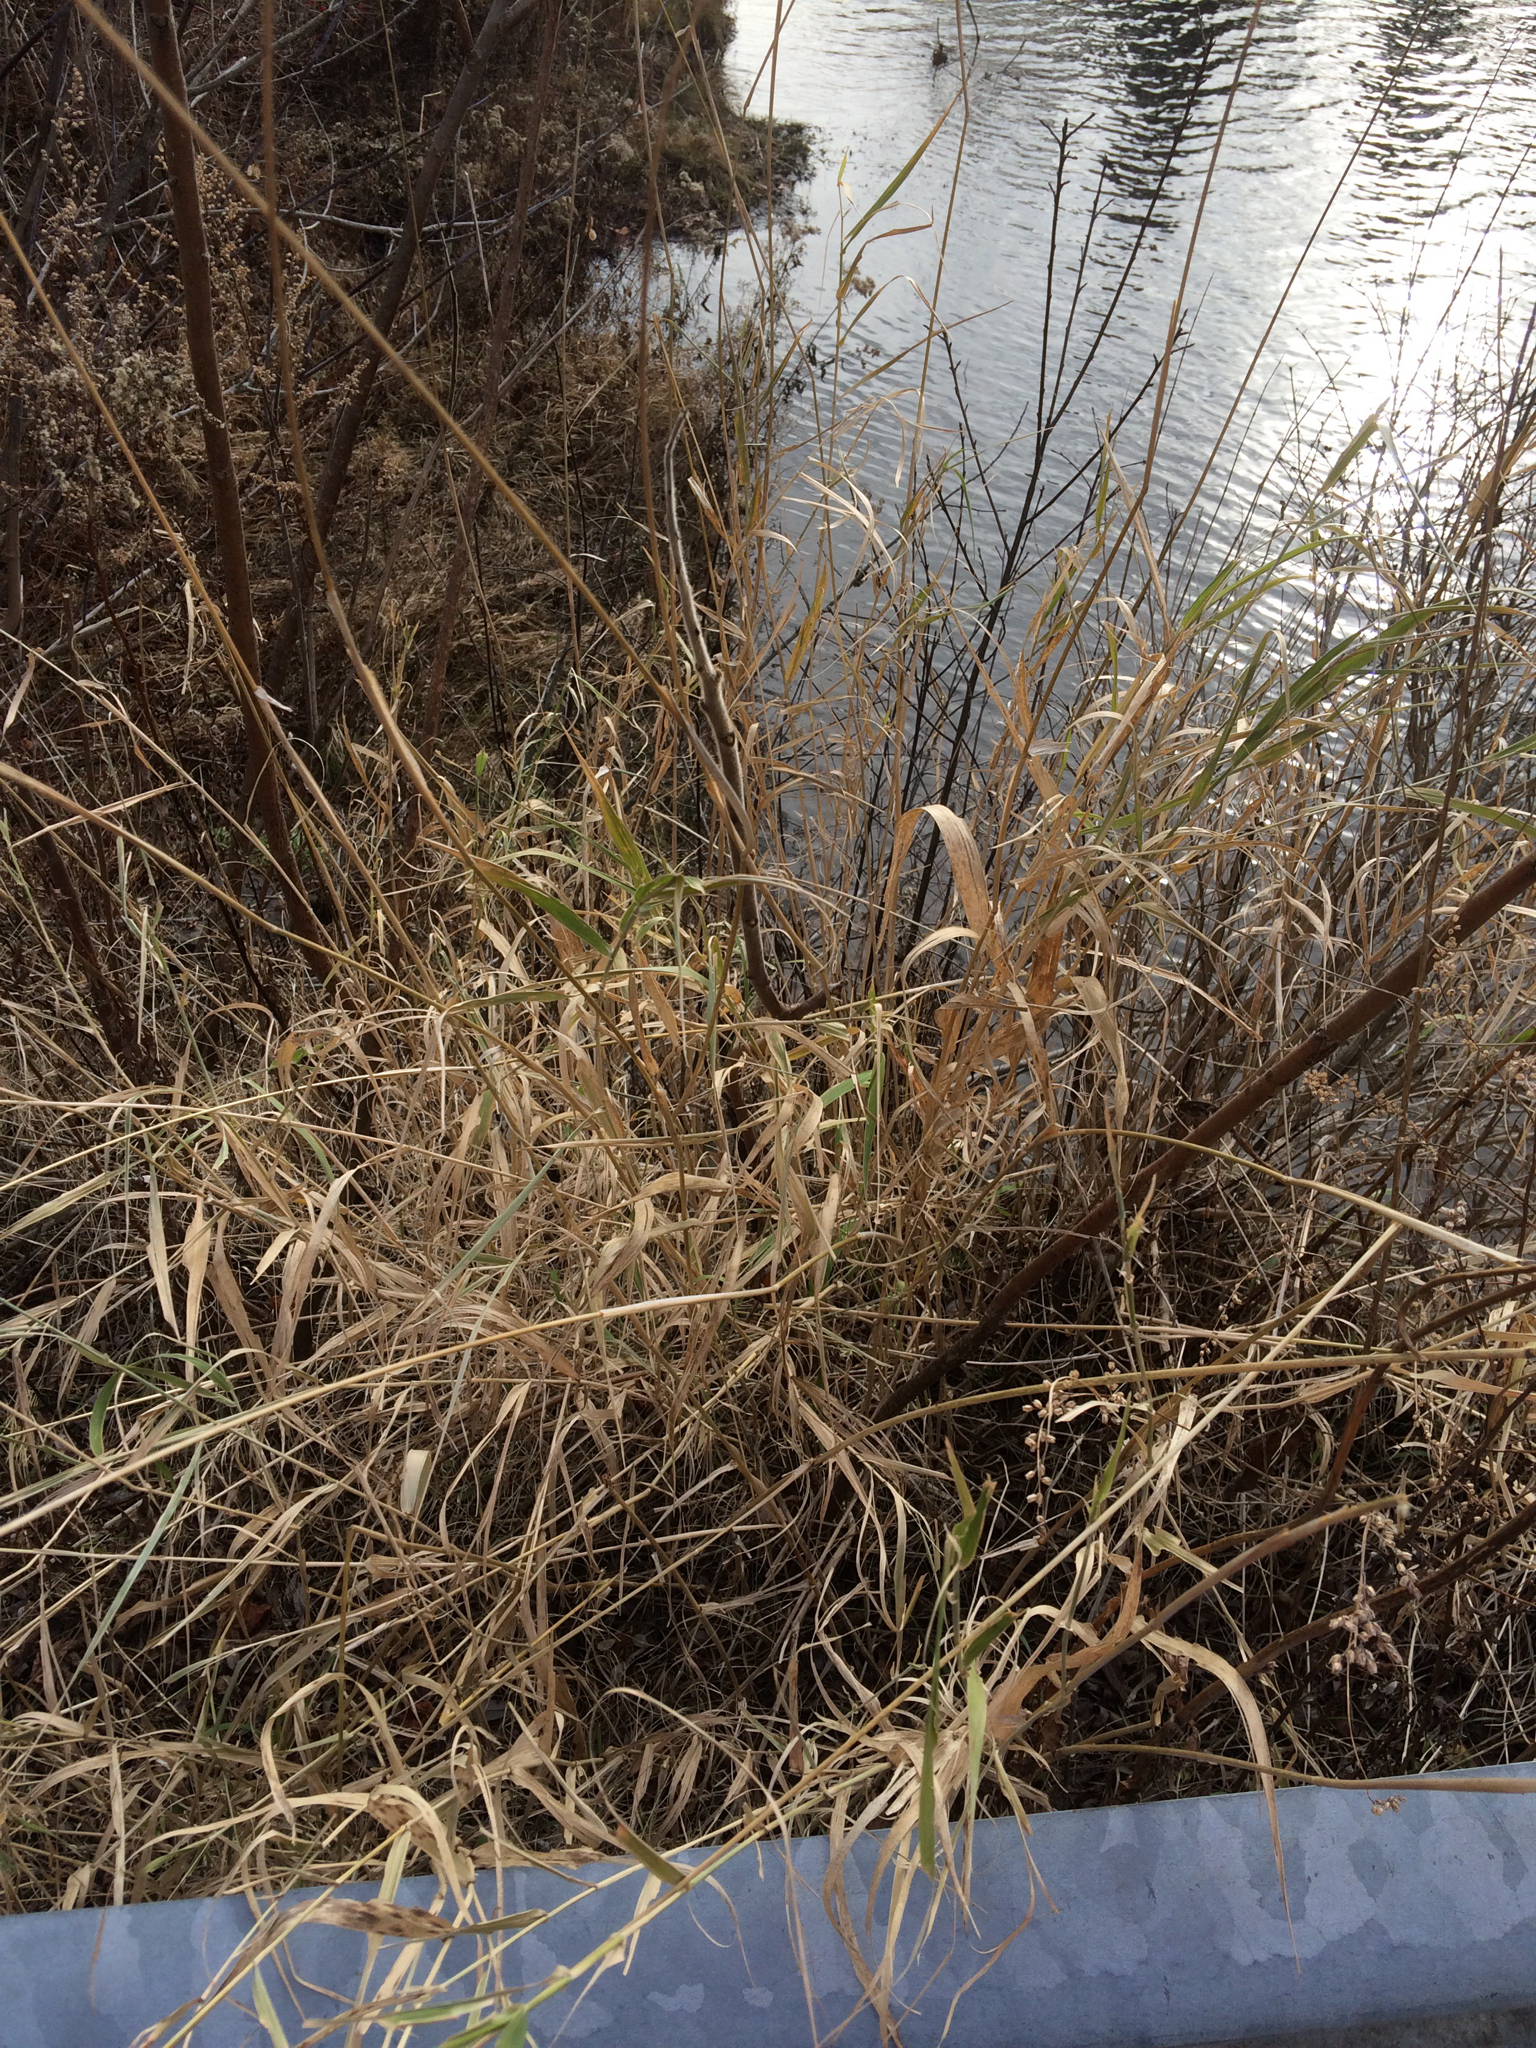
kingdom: Plantae
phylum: Tracheophyta
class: Liliopsida
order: Poales
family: Poaceae
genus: Phalaris
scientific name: Phalaris arundinacea
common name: Reed canary-grass
